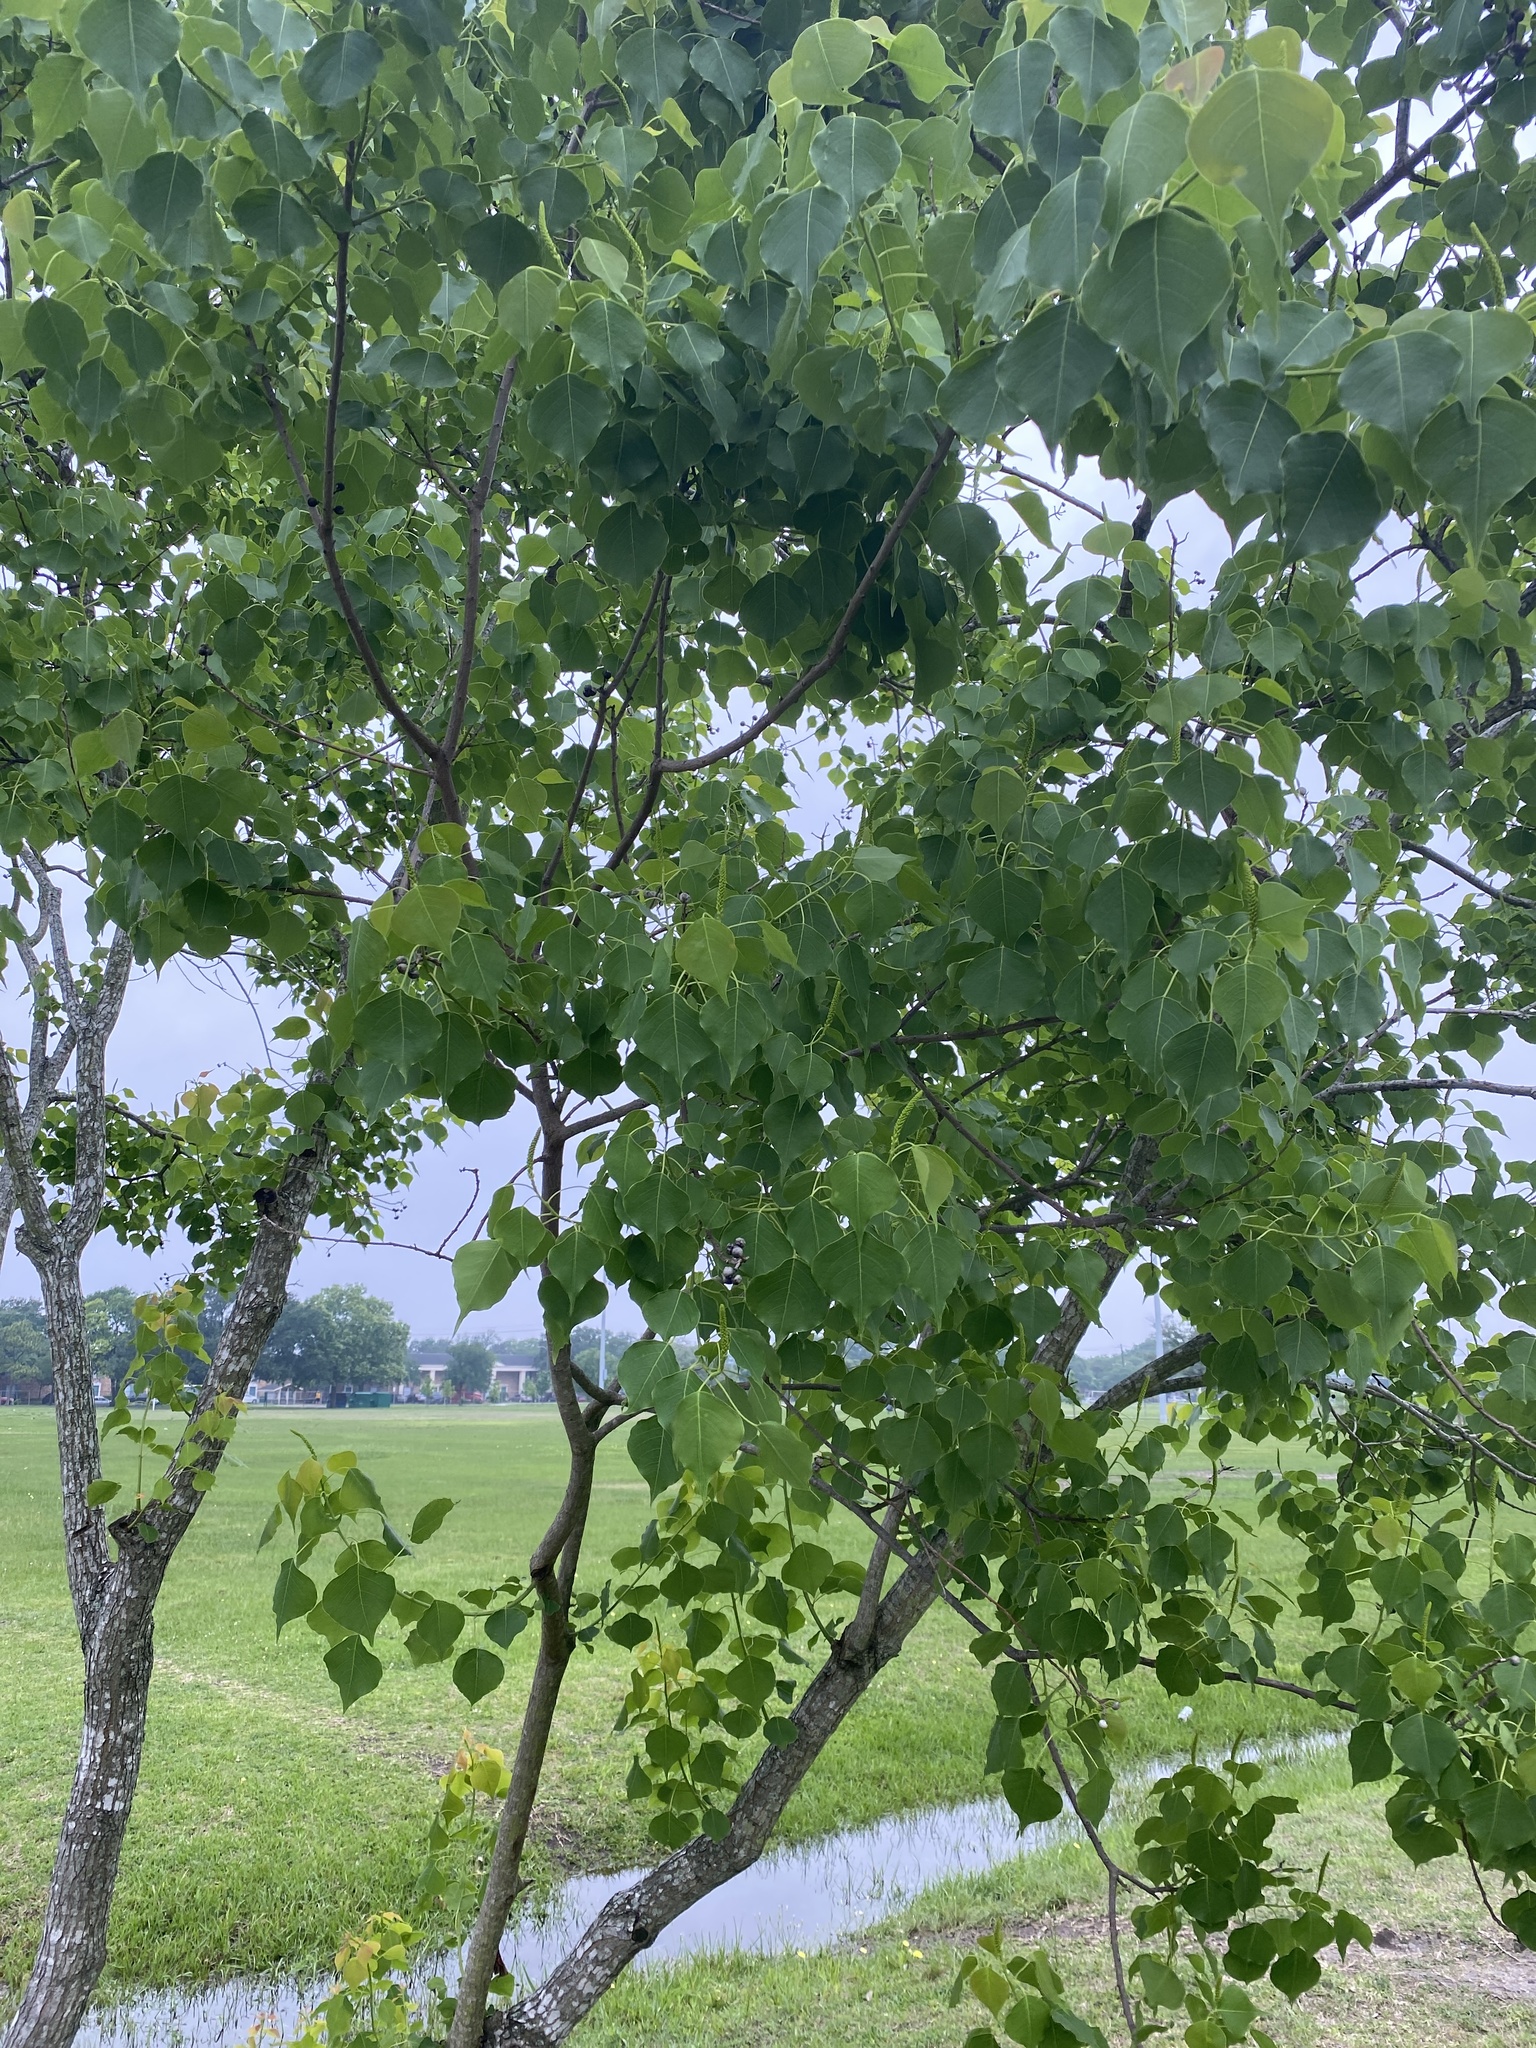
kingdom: Plantae
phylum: Tracheophyta
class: Magnoliopsida
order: Malpighiales
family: Euphorbiaceae
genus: Triadica
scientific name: Triadica sebifera
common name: Chinese tallow
